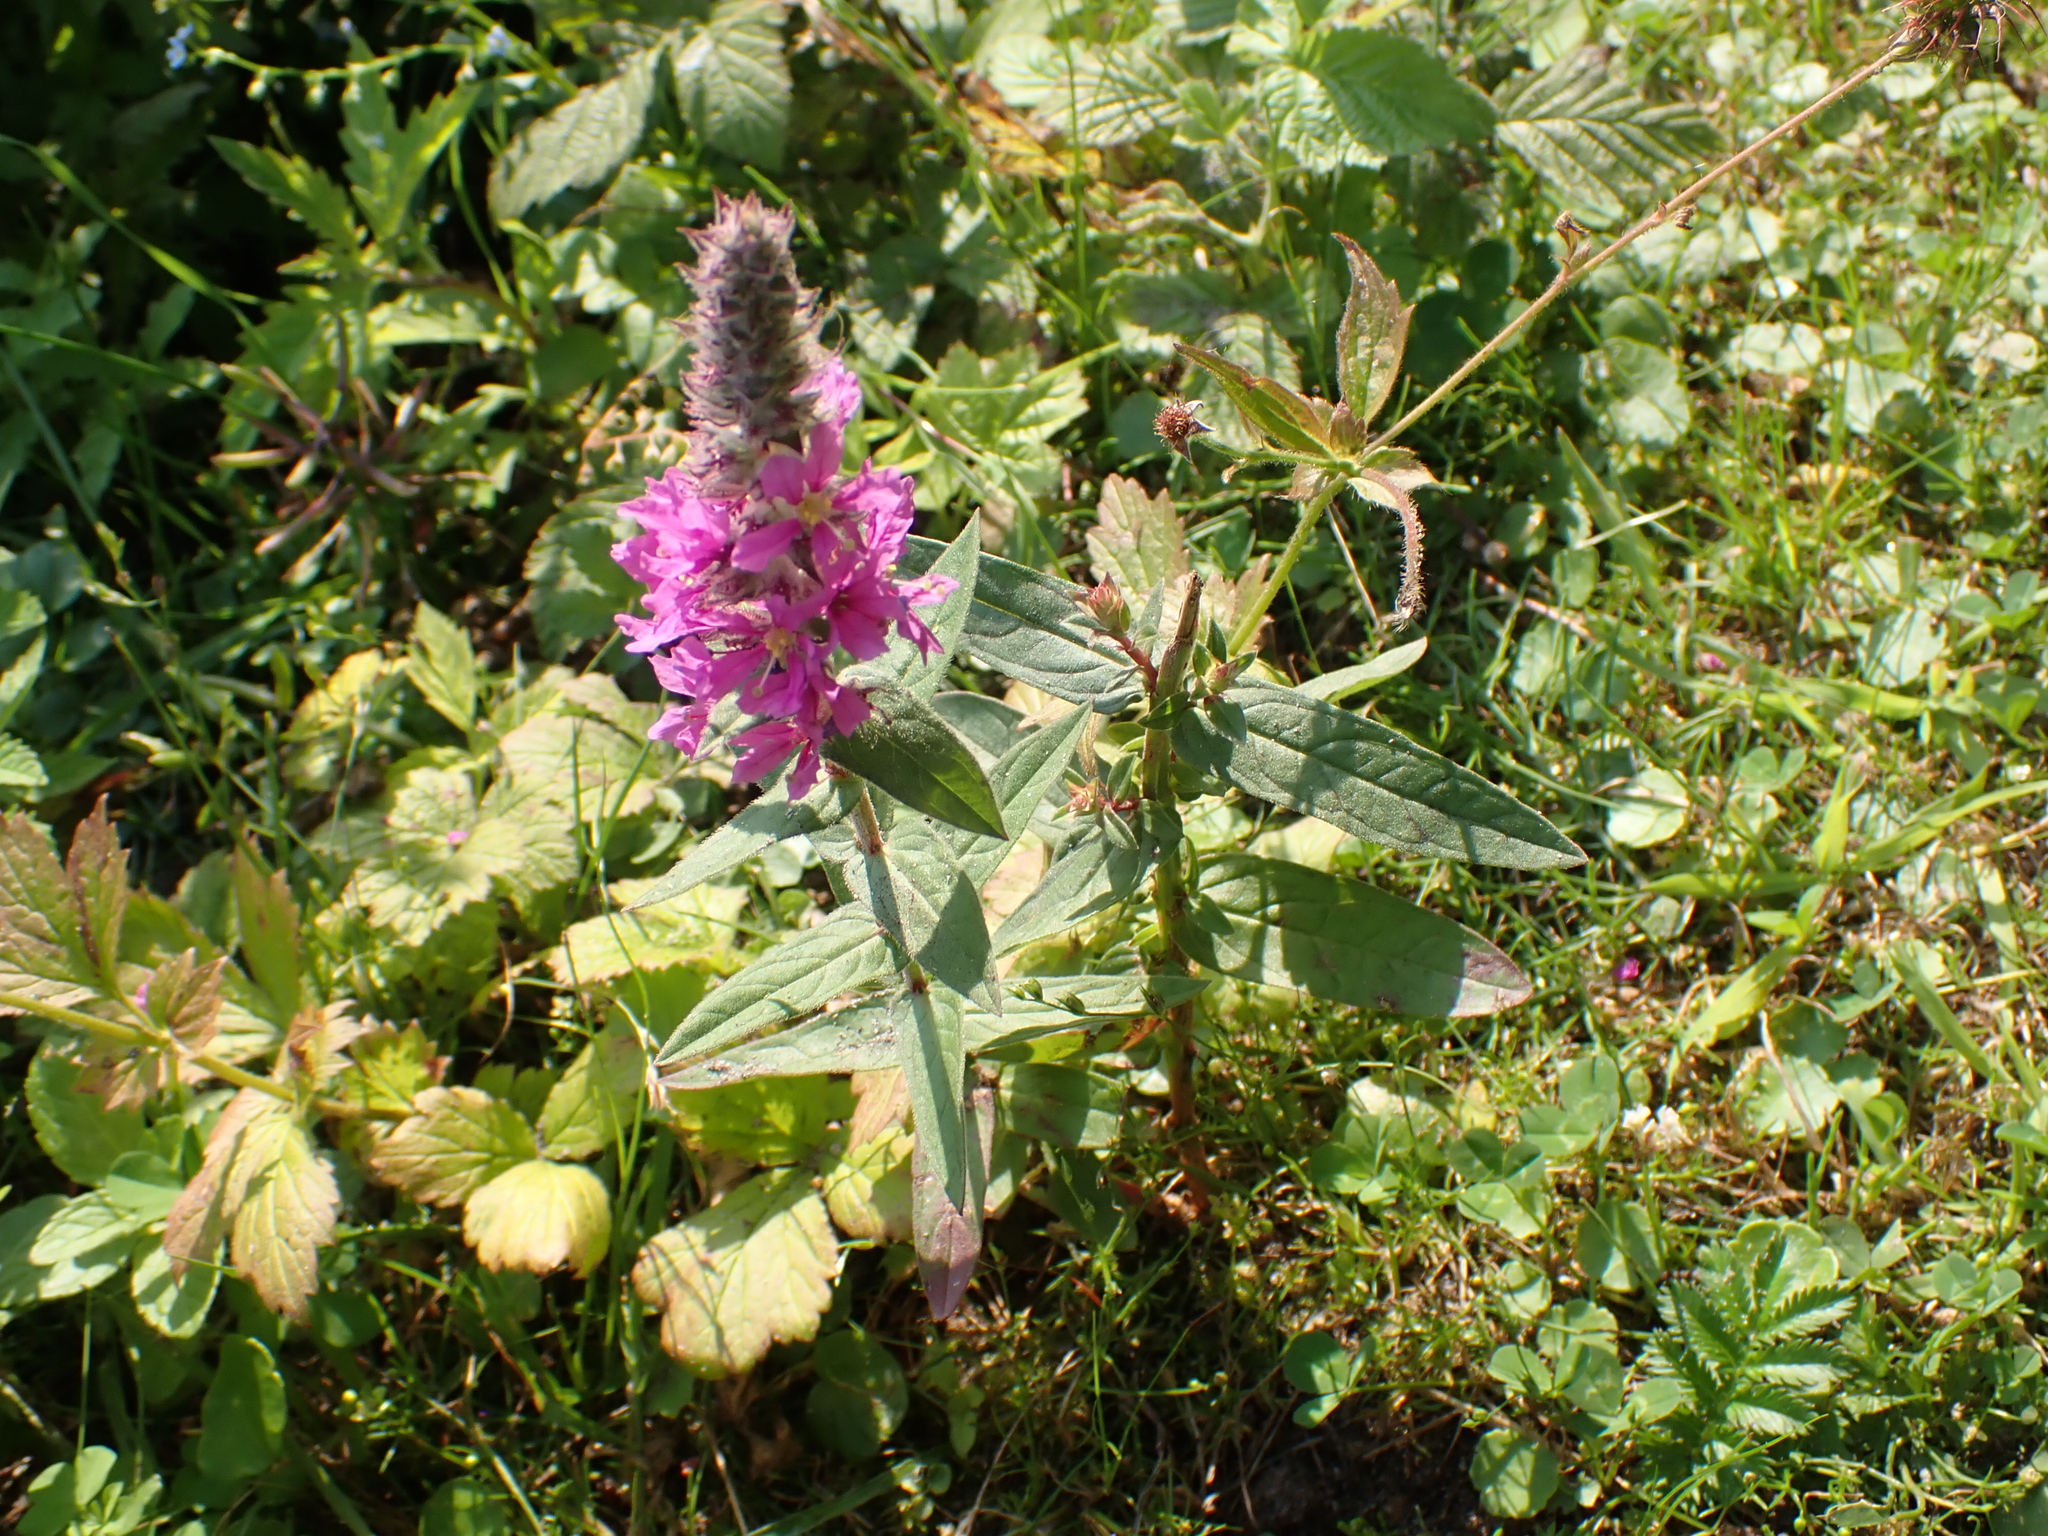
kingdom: Plantae
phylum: Tracheophyta
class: Magnoliopsida
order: Myrtales
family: Lythraceae
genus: Lythrum
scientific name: Lythrum salicaria
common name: Purple loosestrife
